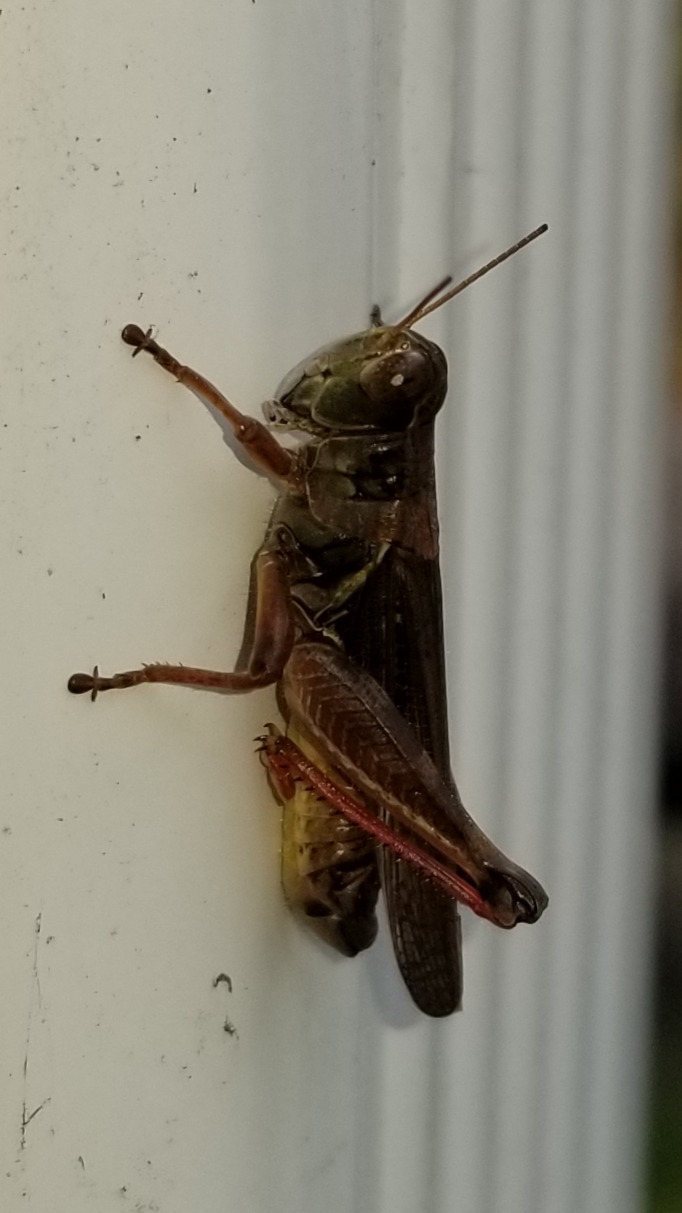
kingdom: Animalia
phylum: Arthropoda
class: Insecta
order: Orthoptera
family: Acrididae
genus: Melanoplus
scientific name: Melanoplus sanguinipes
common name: Migratory grasshopper
